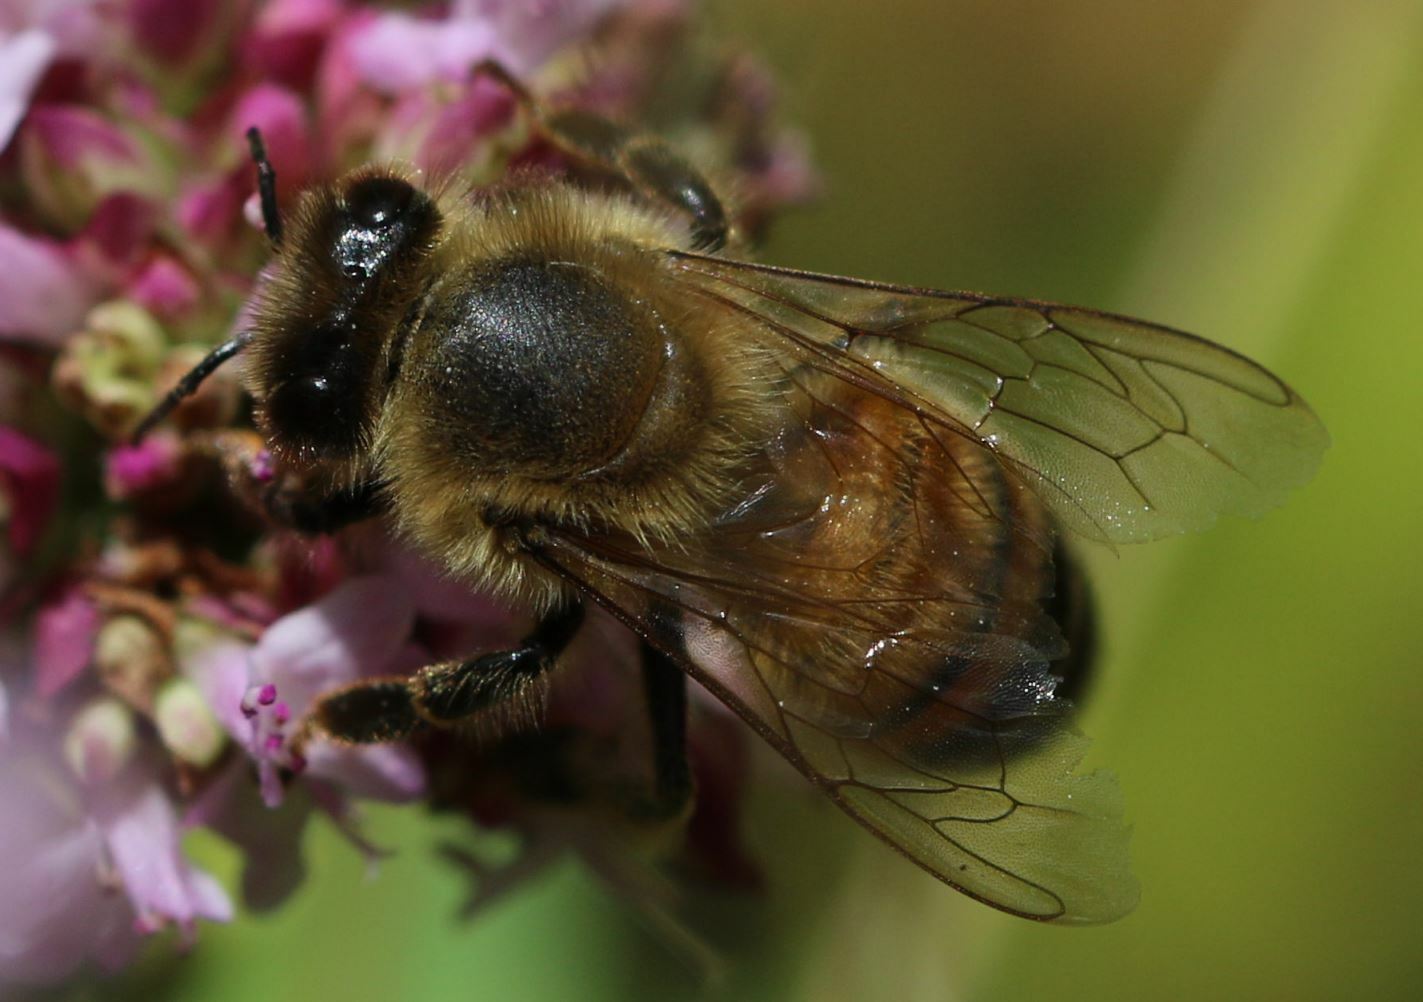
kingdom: Animalia
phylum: Arthropoda
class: Insecta
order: Hymenoptera
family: Apidae
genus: Apis
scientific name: Apis mellifera
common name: Honey bee
